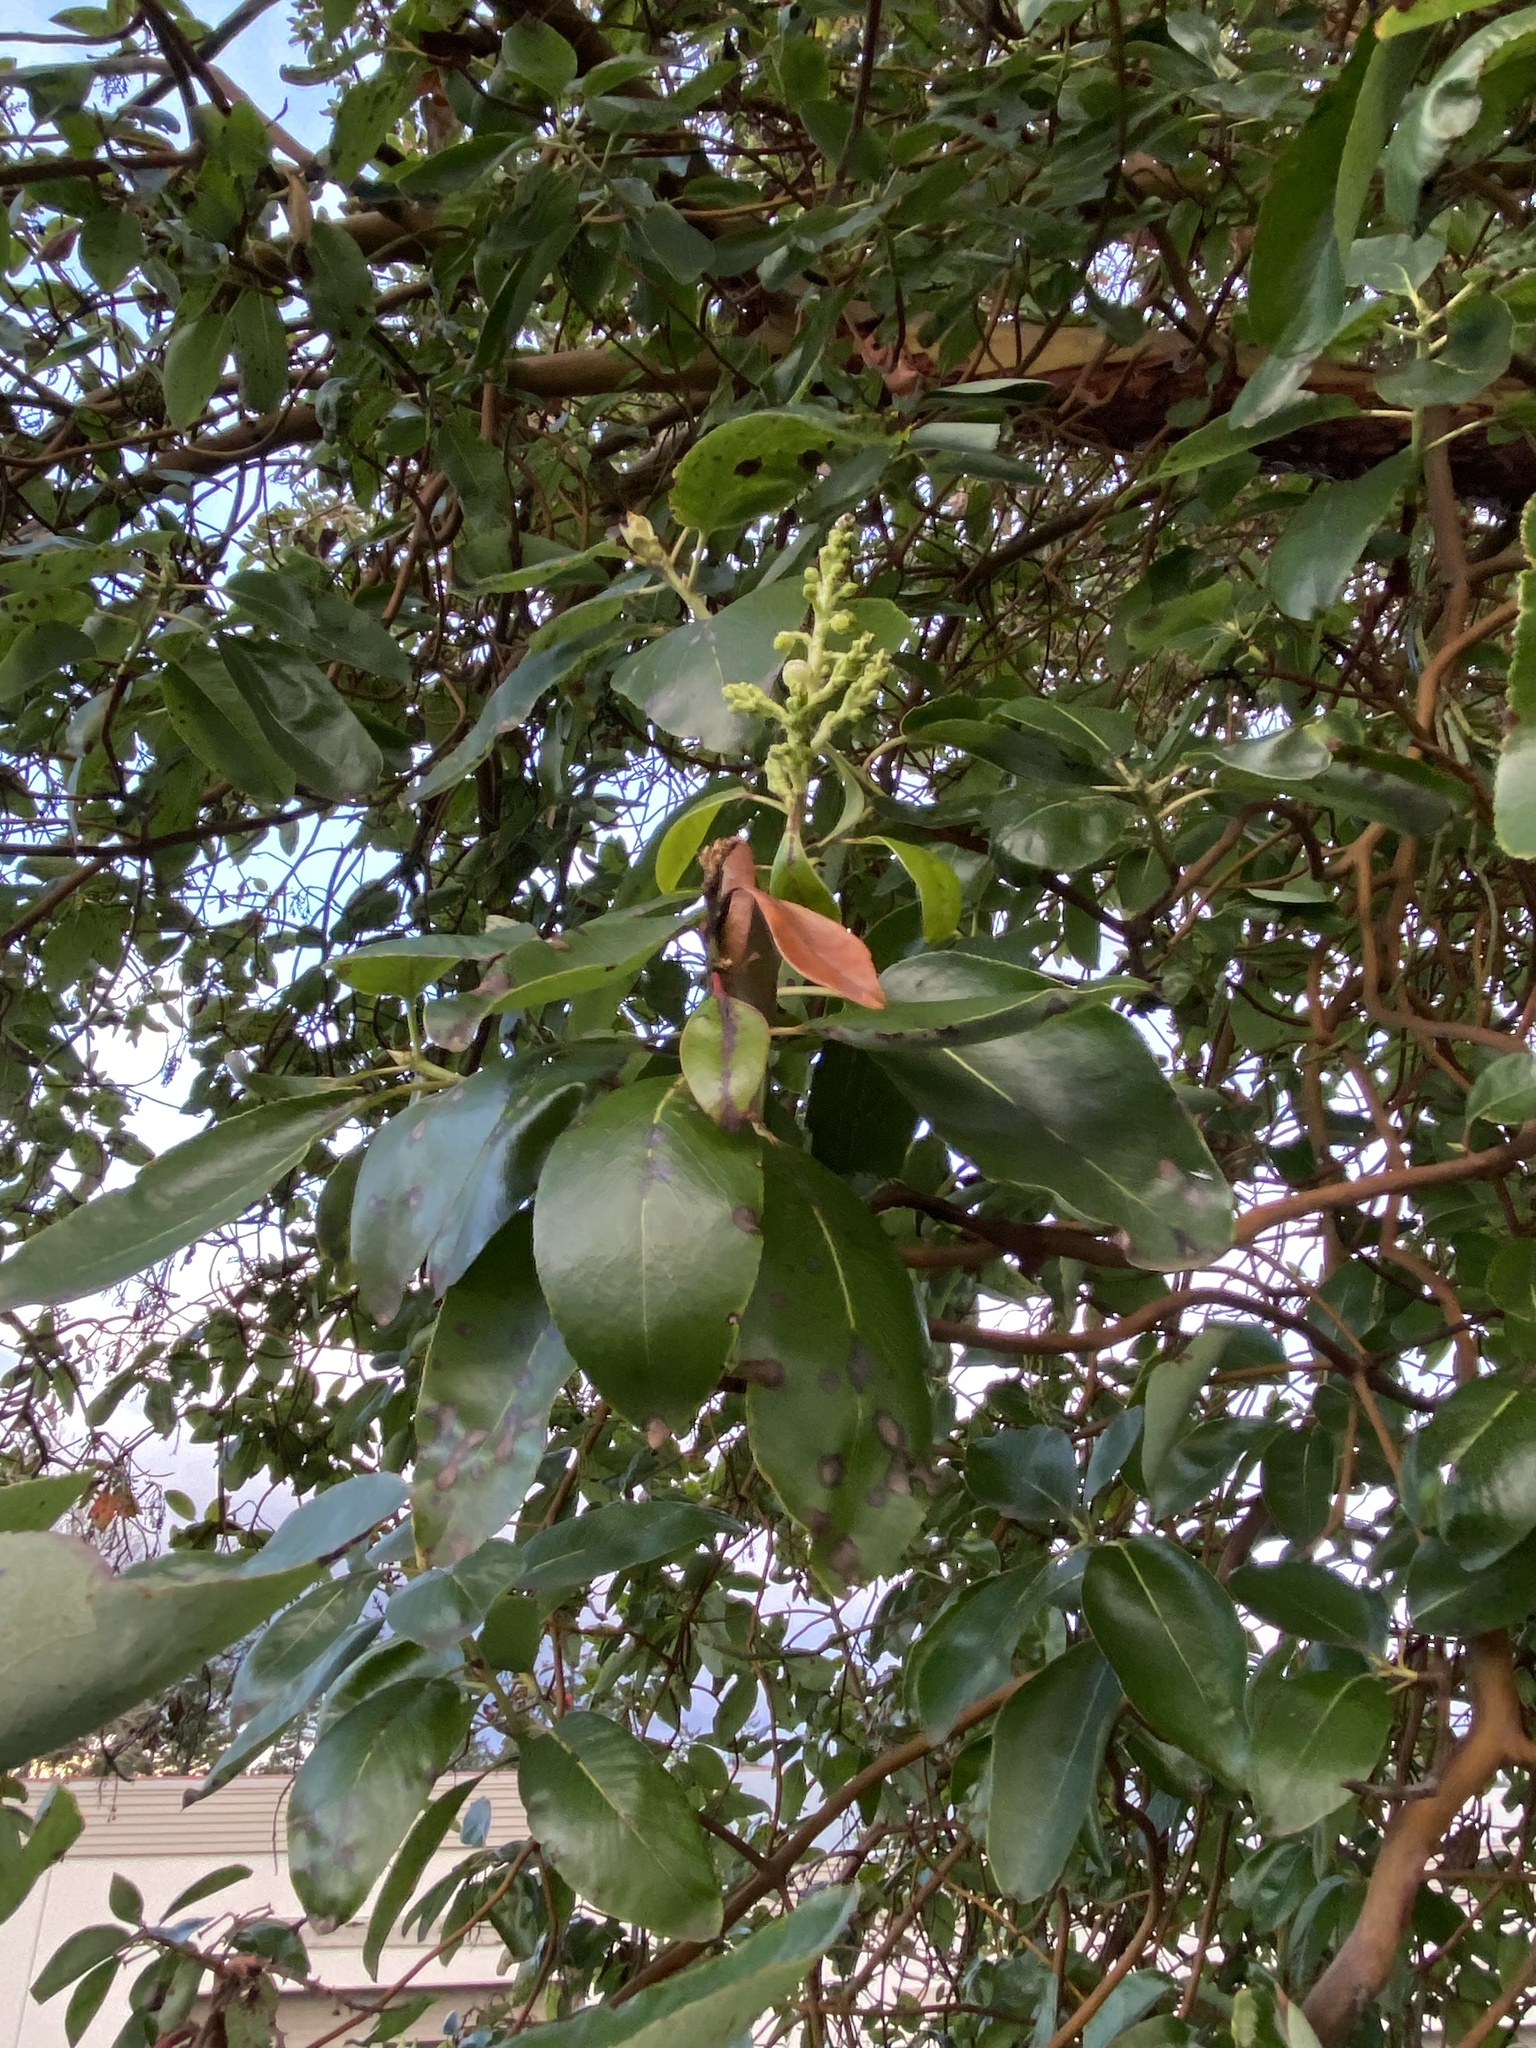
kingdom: Plantae
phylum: Tracheophyta
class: Magnoliopsida
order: Ericales
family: Ericaceae
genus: Arbutus
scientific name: Arbutus menziesii
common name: Pacific madrone
